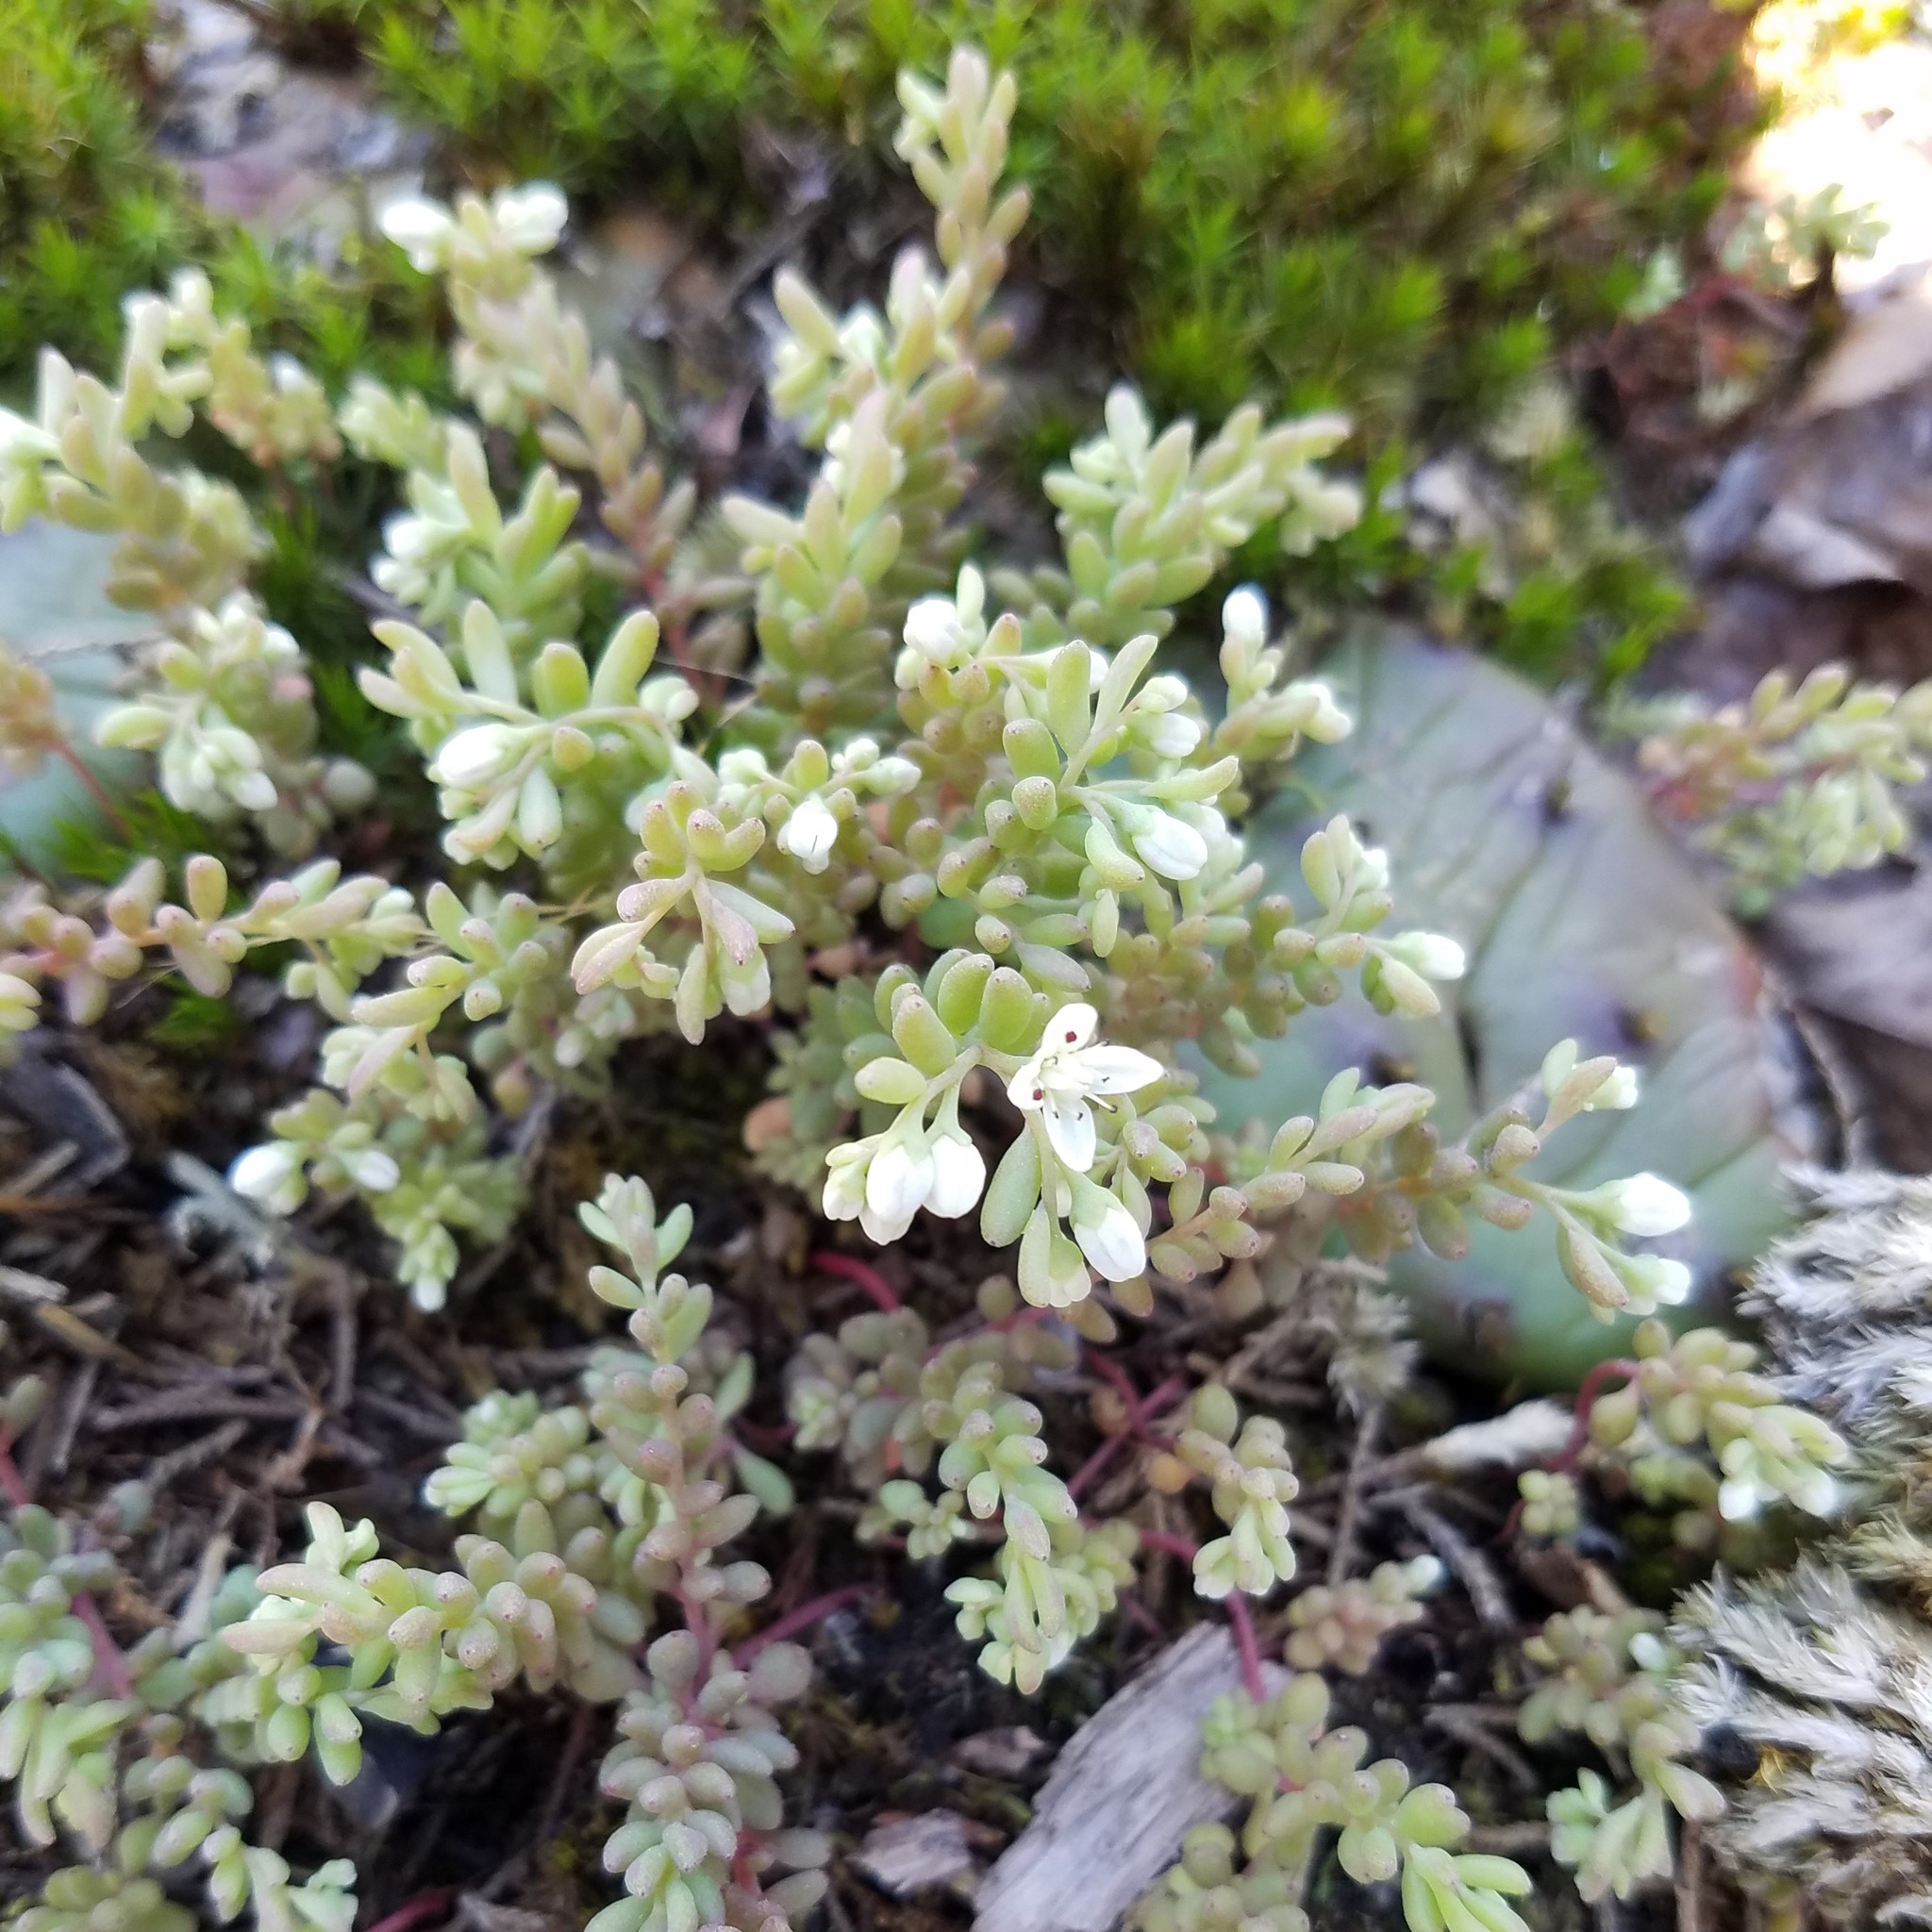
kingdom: Plantae
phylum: Tracheophyta
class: Magnoliopsida
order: Saxifragales
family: Crassulaceae
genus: Sedum
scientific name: Sedum pusillum
